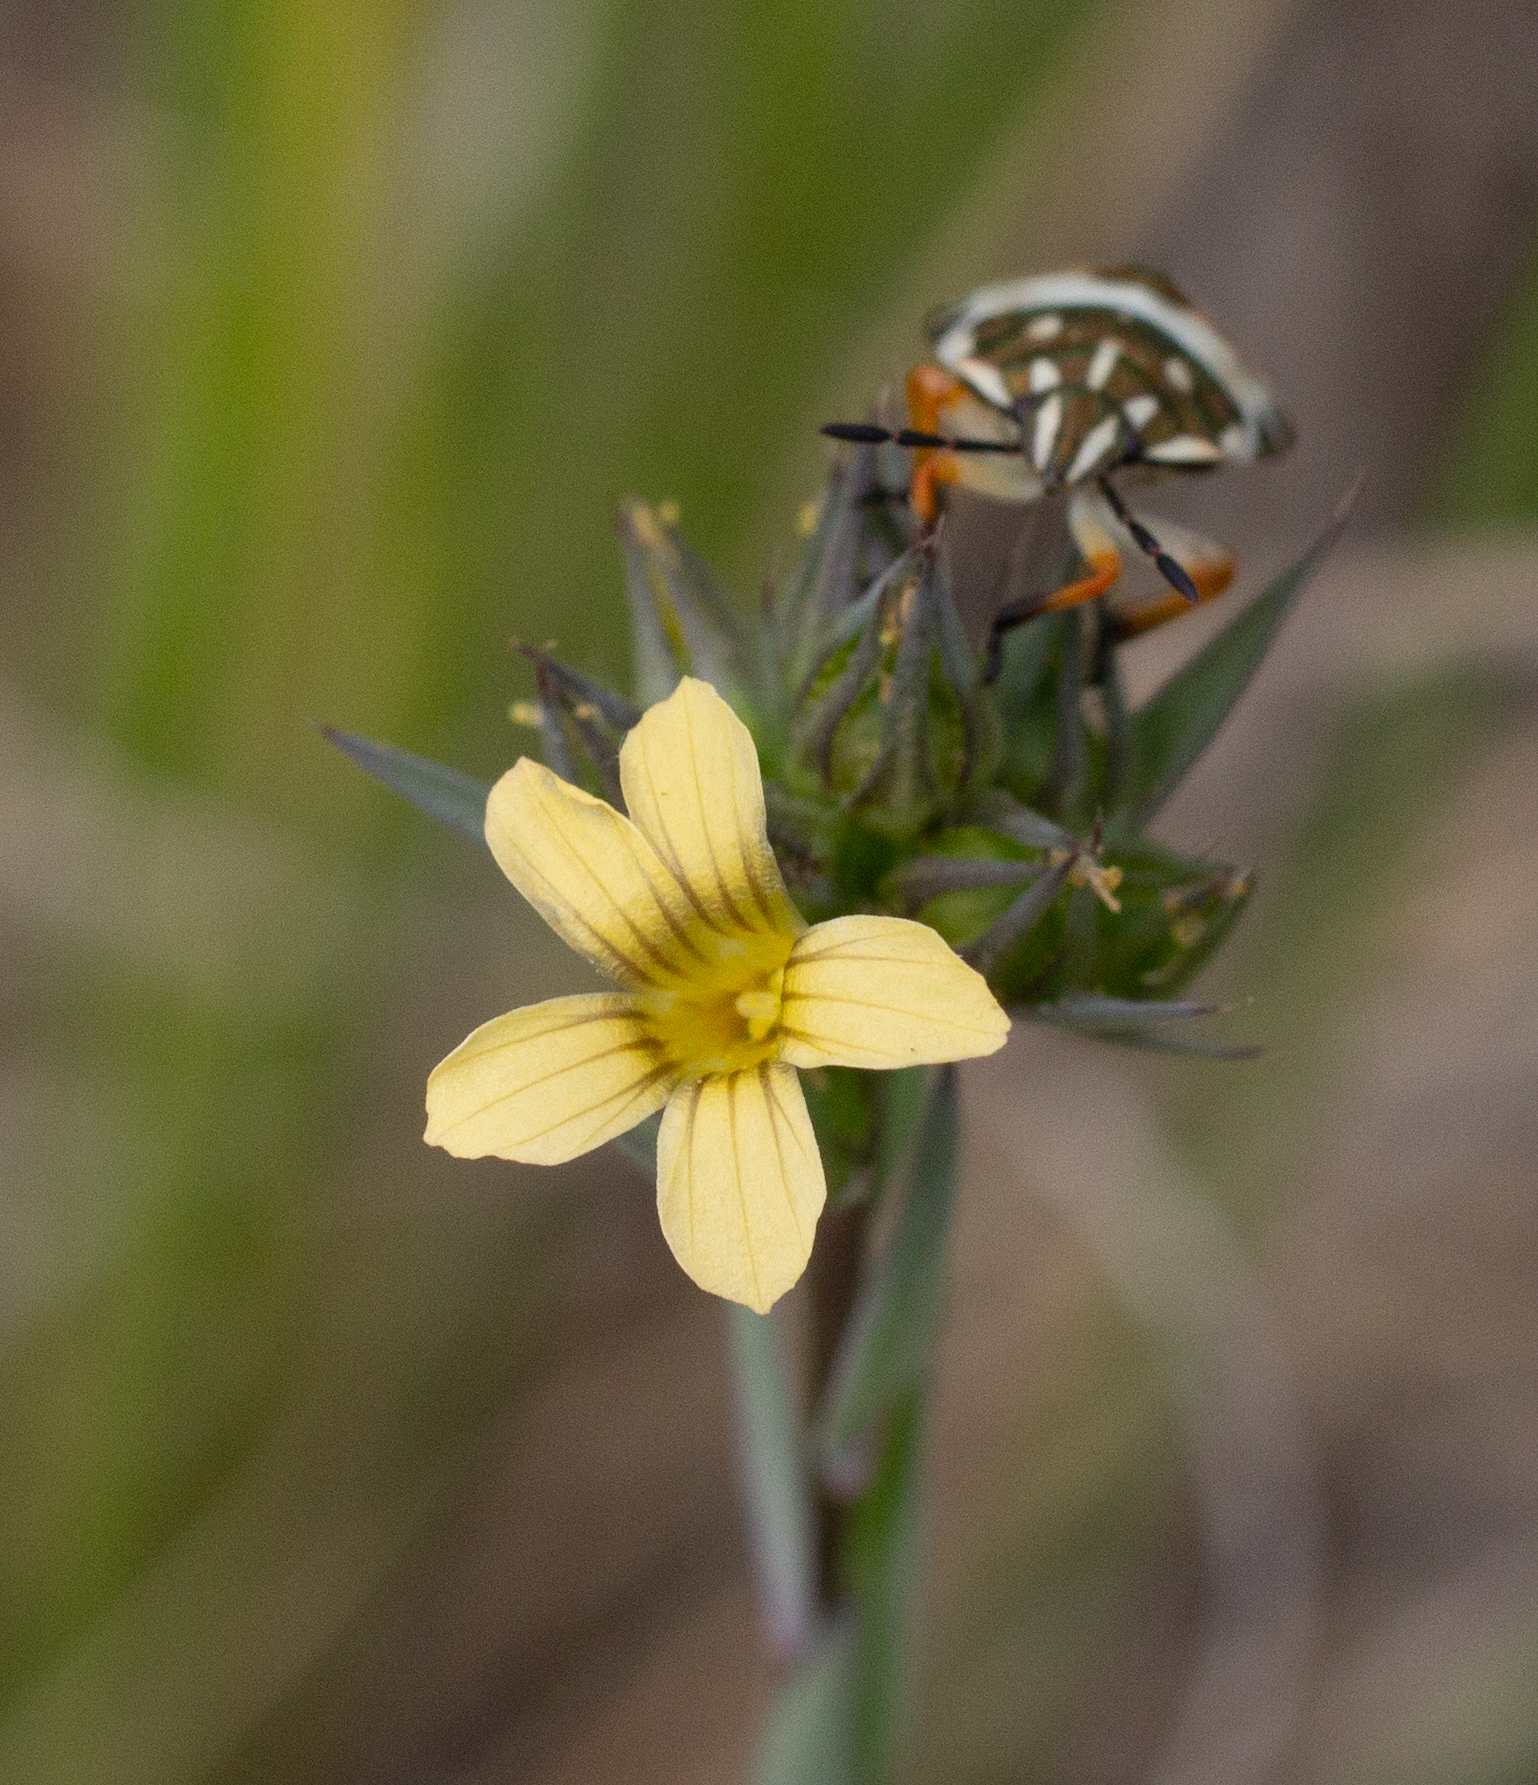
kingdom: Plantae
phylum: Tracheophyta
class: Magnoliopsida
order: Malpighiales
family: Linaceae
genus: Linum
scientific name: Linum strictum
